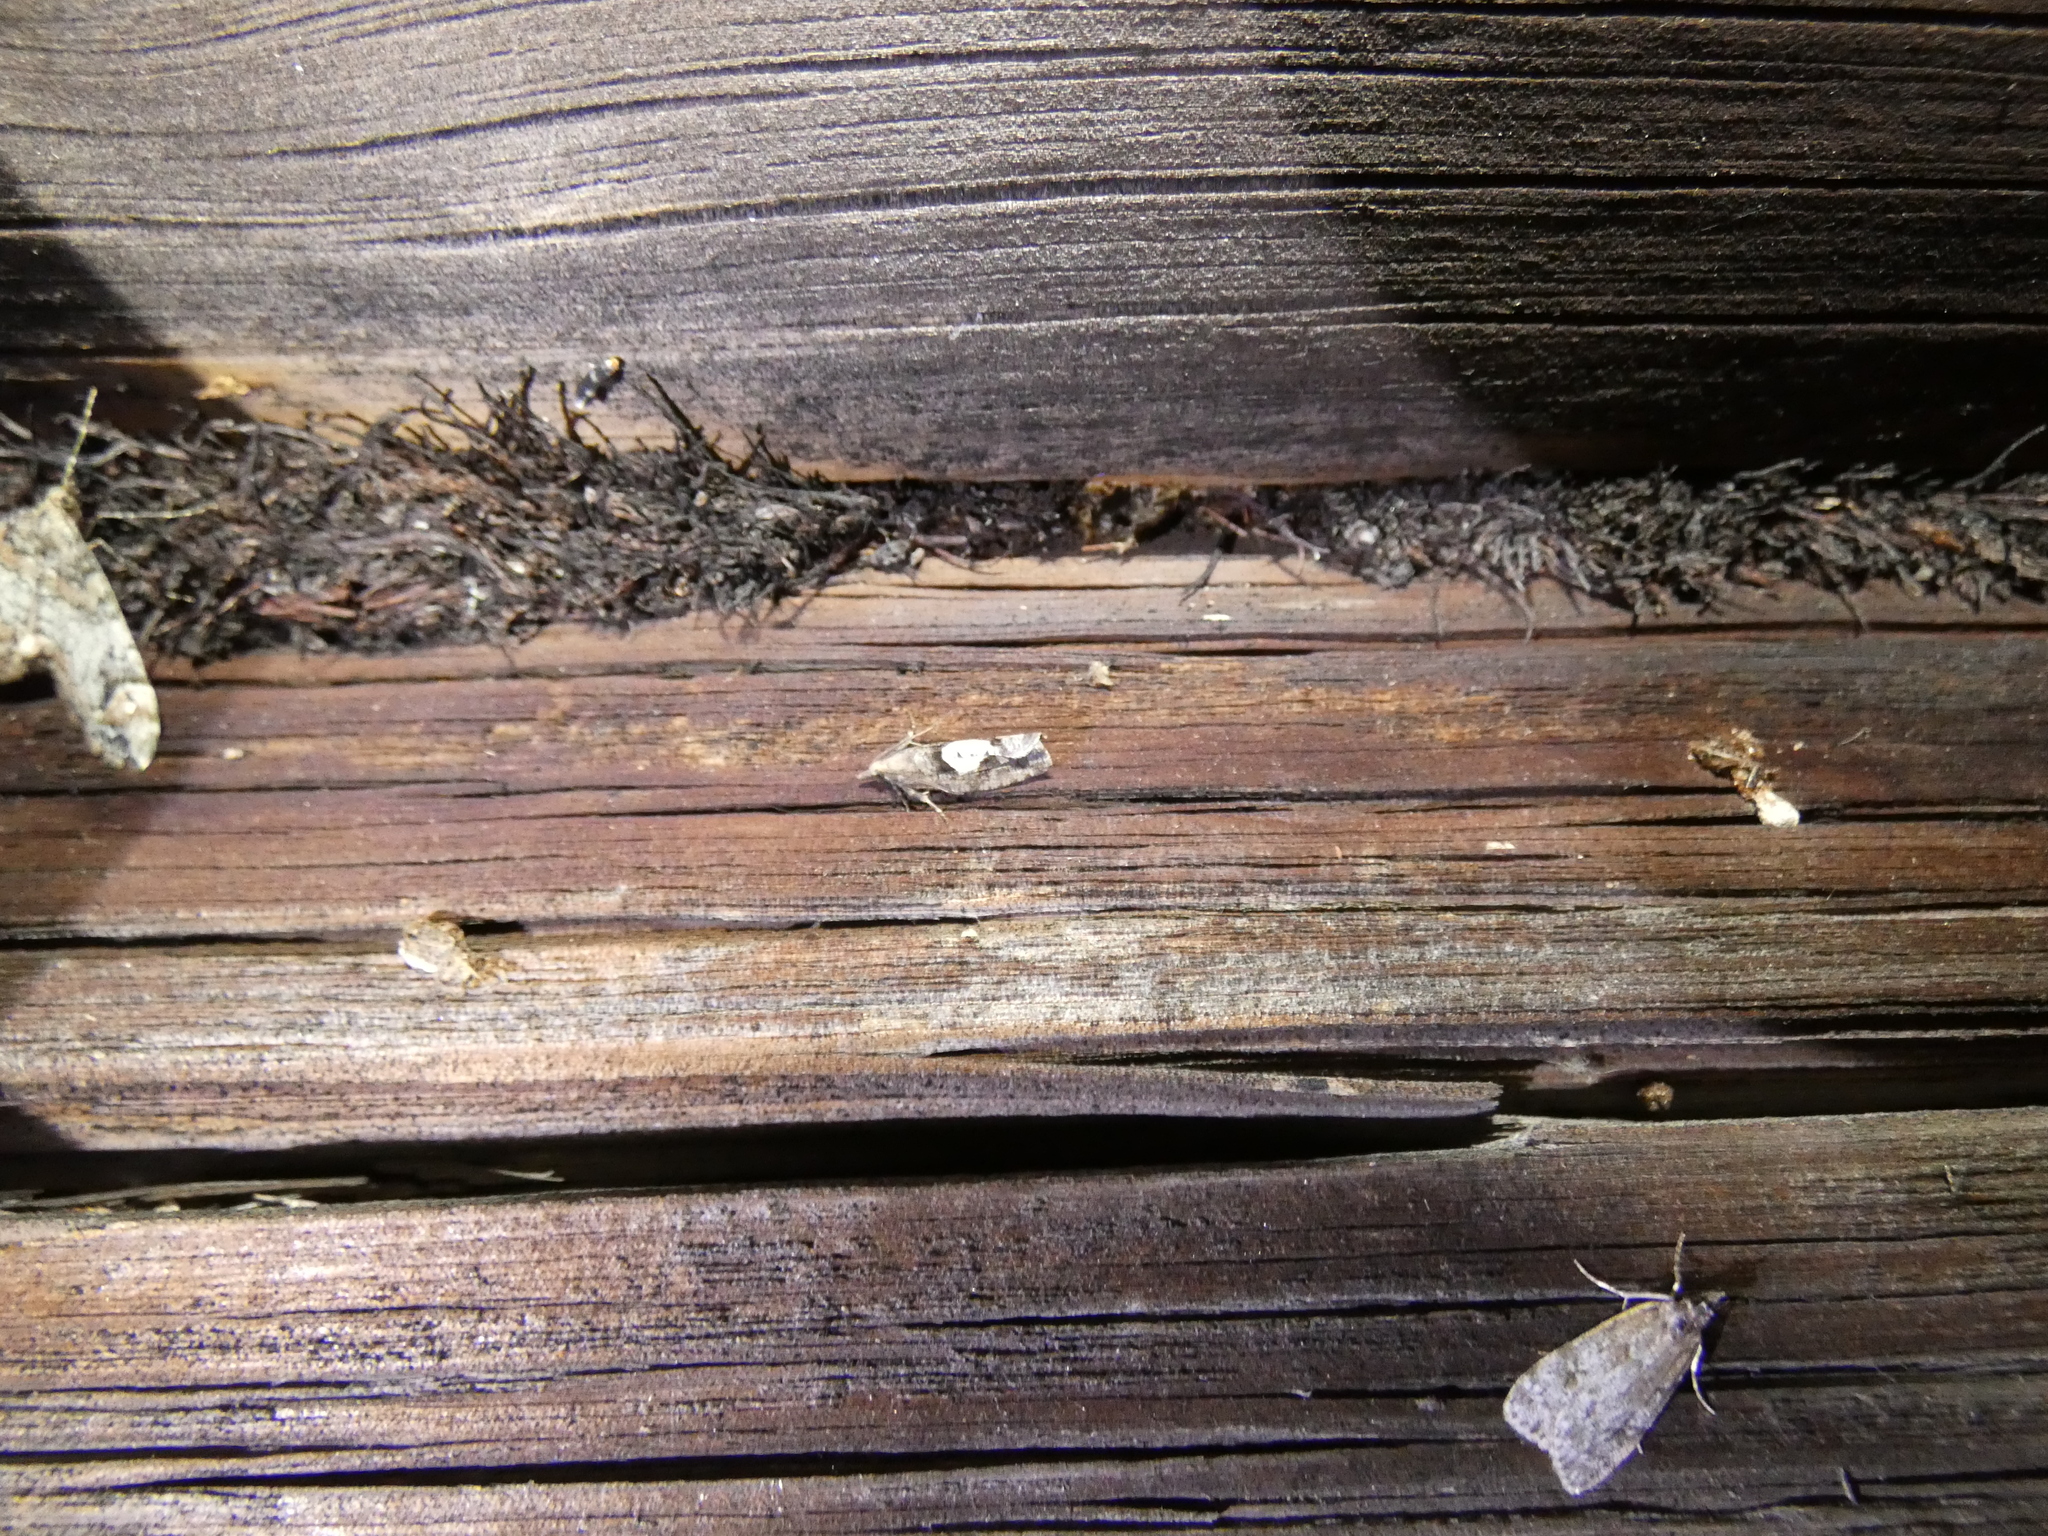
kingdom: Animalia
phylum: Arthropoda
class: Insecta
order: Lepidoptera
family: Tortricidae
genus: Epinotia
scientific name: Epinotia brunnichana
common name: Large birch bell
